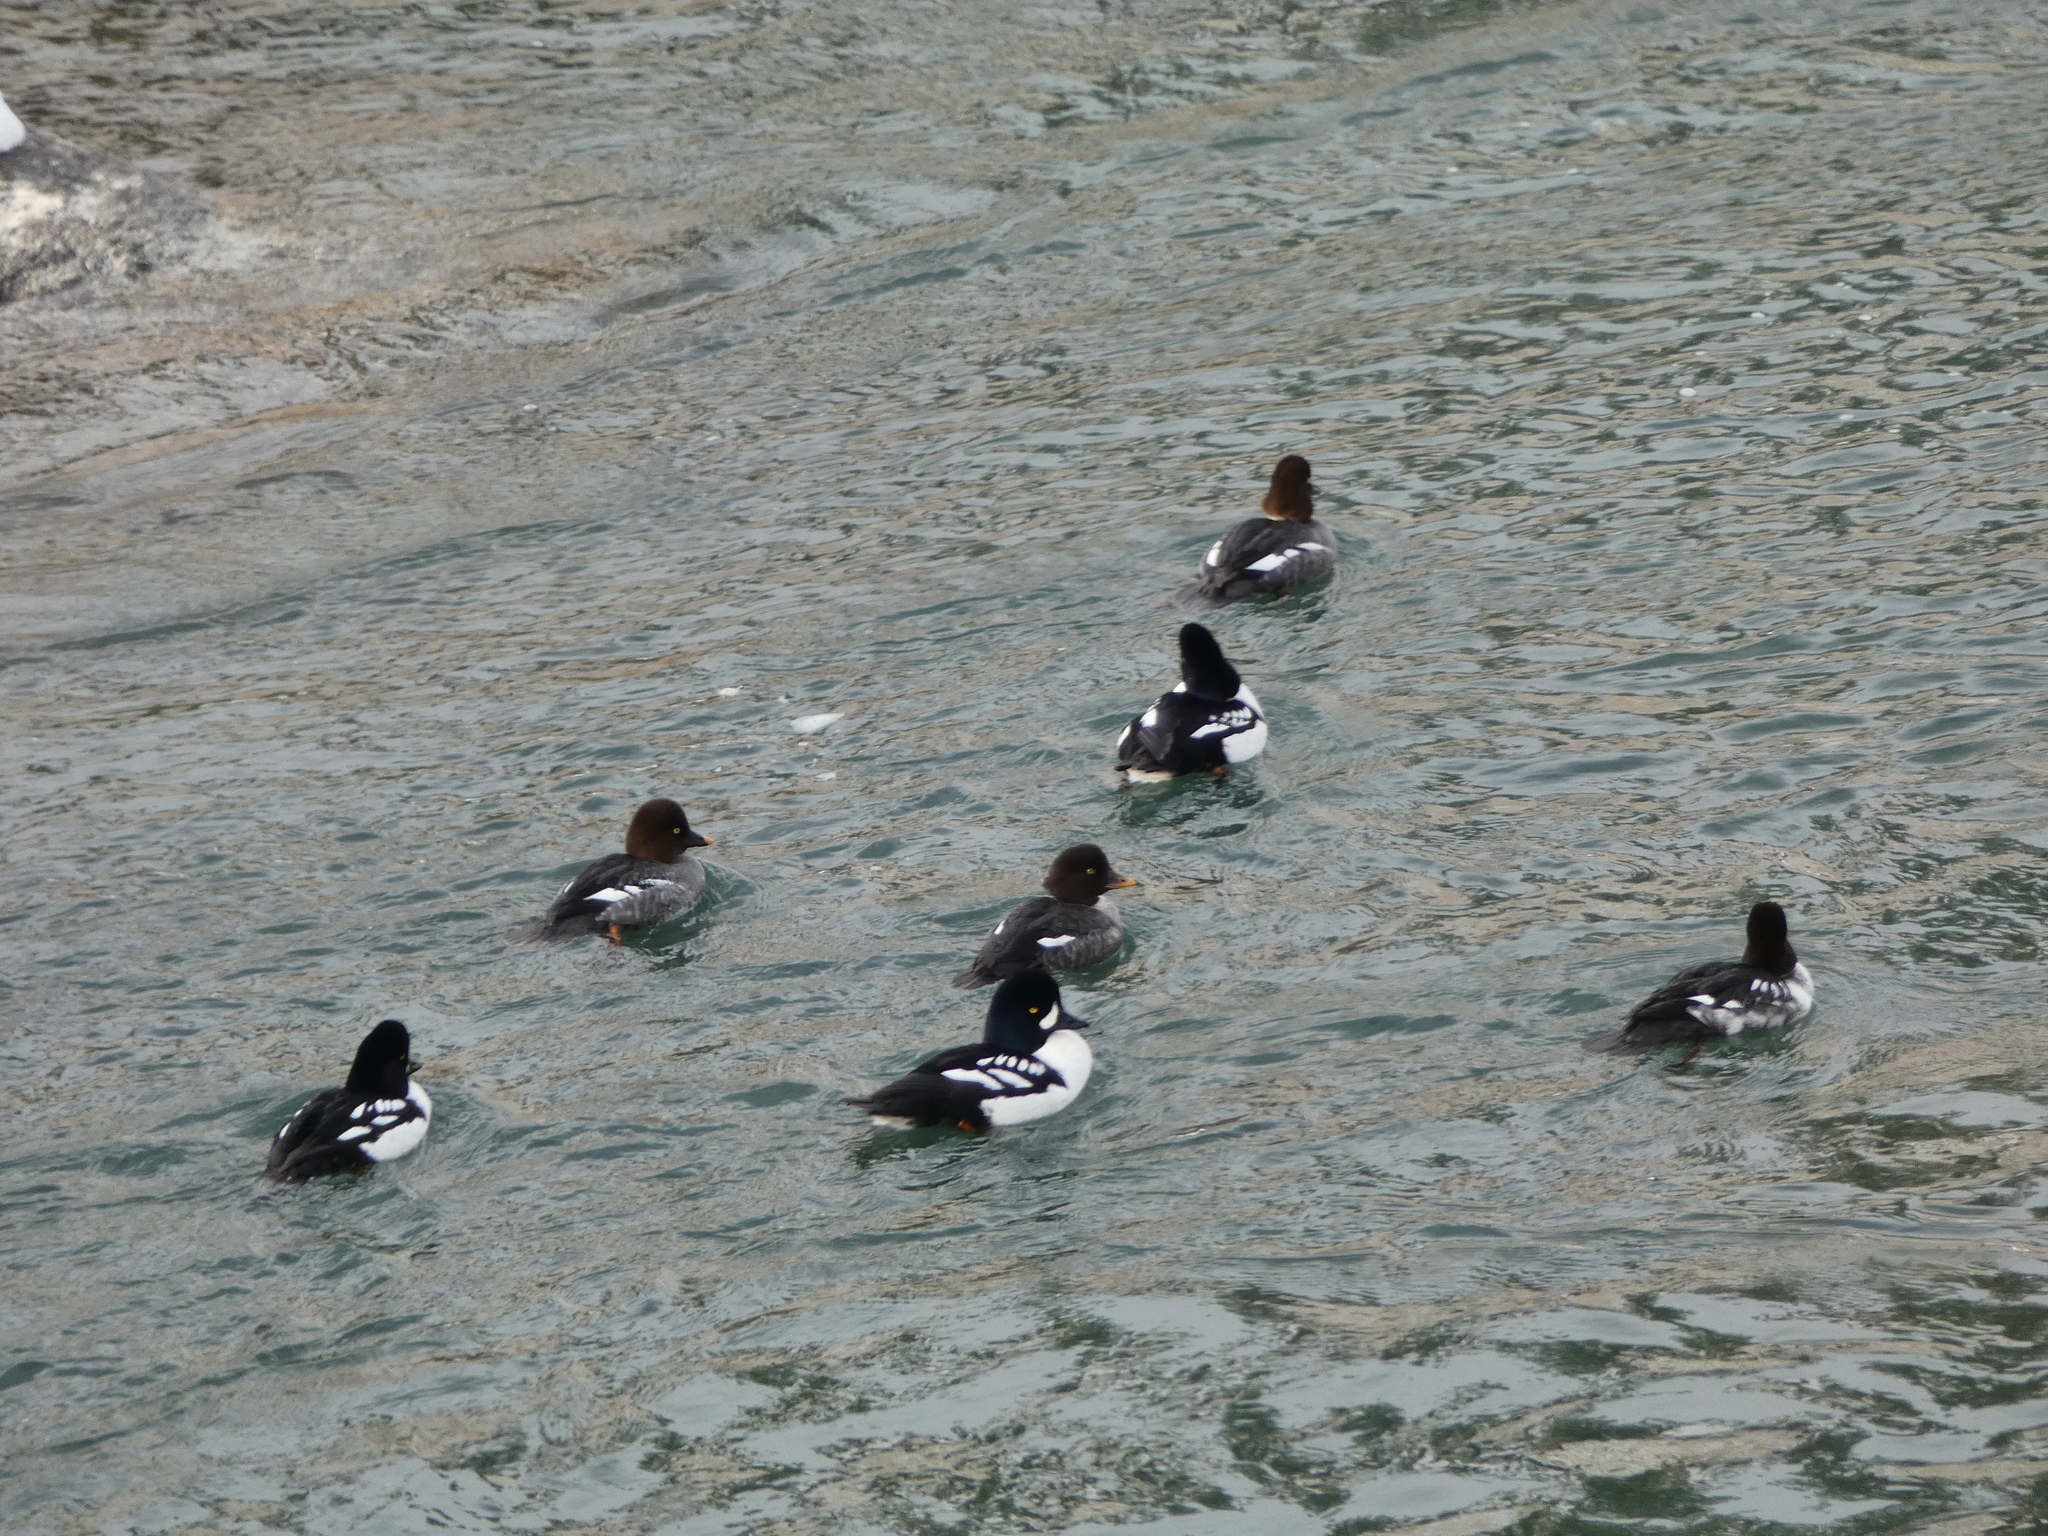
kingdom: Animalia
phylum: Chordata
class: Aves
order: Anseriformes
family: Anatidae
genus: Bucephala
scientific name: Bucephala islandica
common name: Barrow's goldeneye
